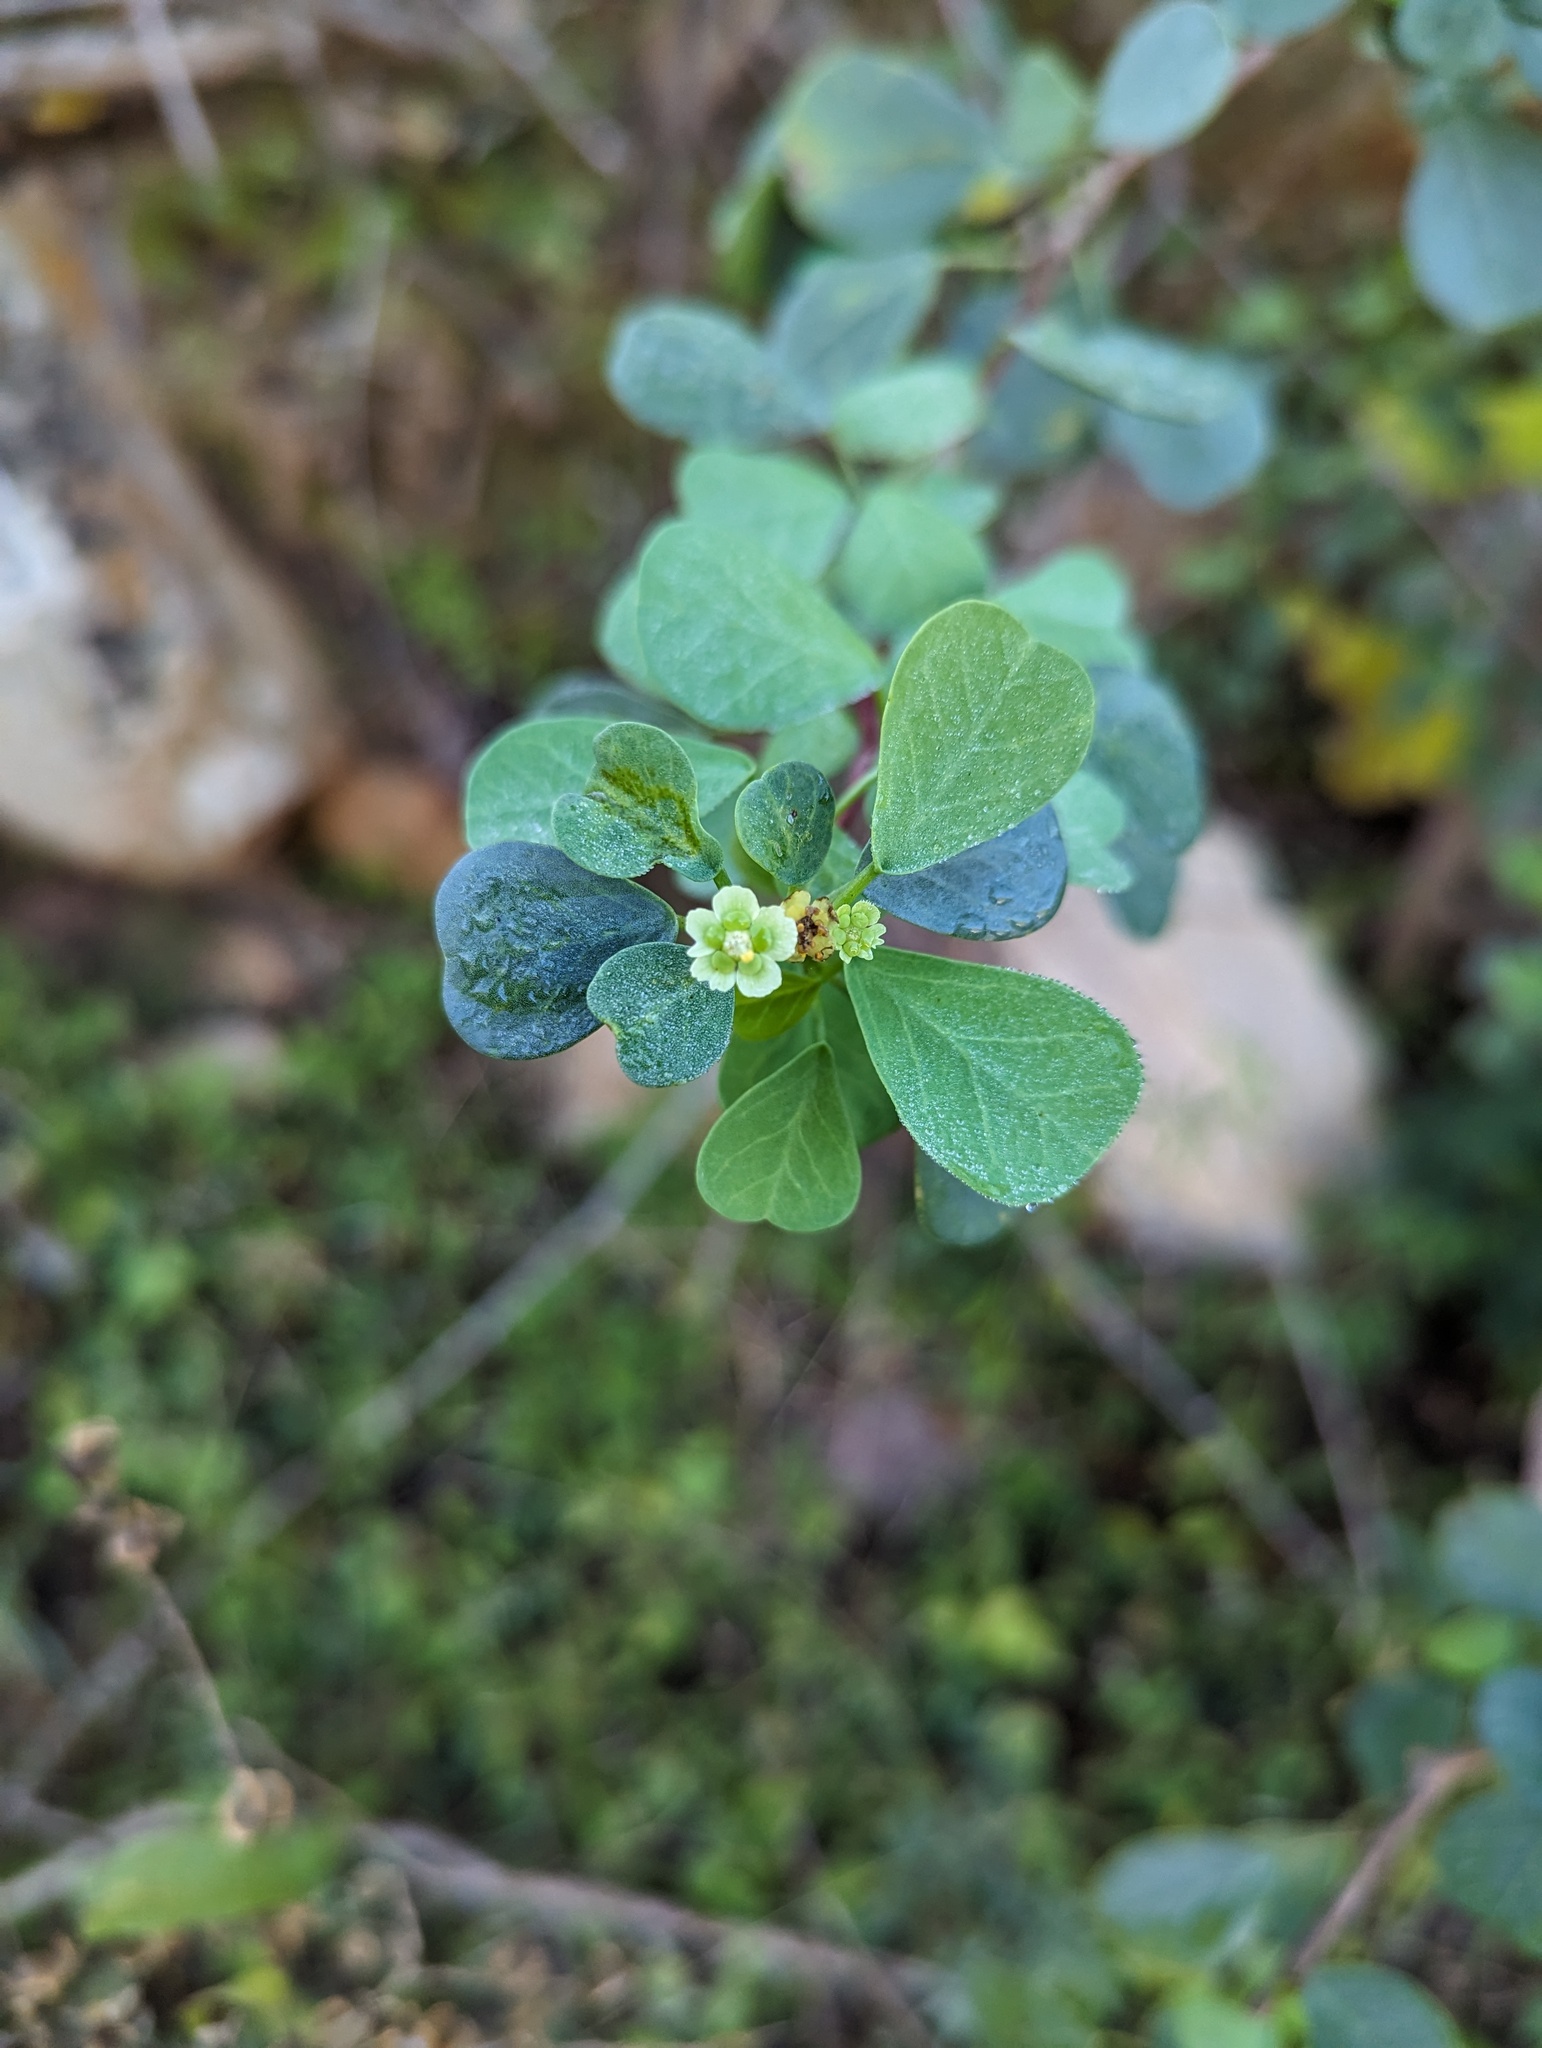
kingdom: Plantae
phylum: Tracheophyta
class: Magnoliopsida
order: Malpighiales
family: Euphorbiaceae
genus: Euphorbia
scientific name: Euphorbia hindsiana
